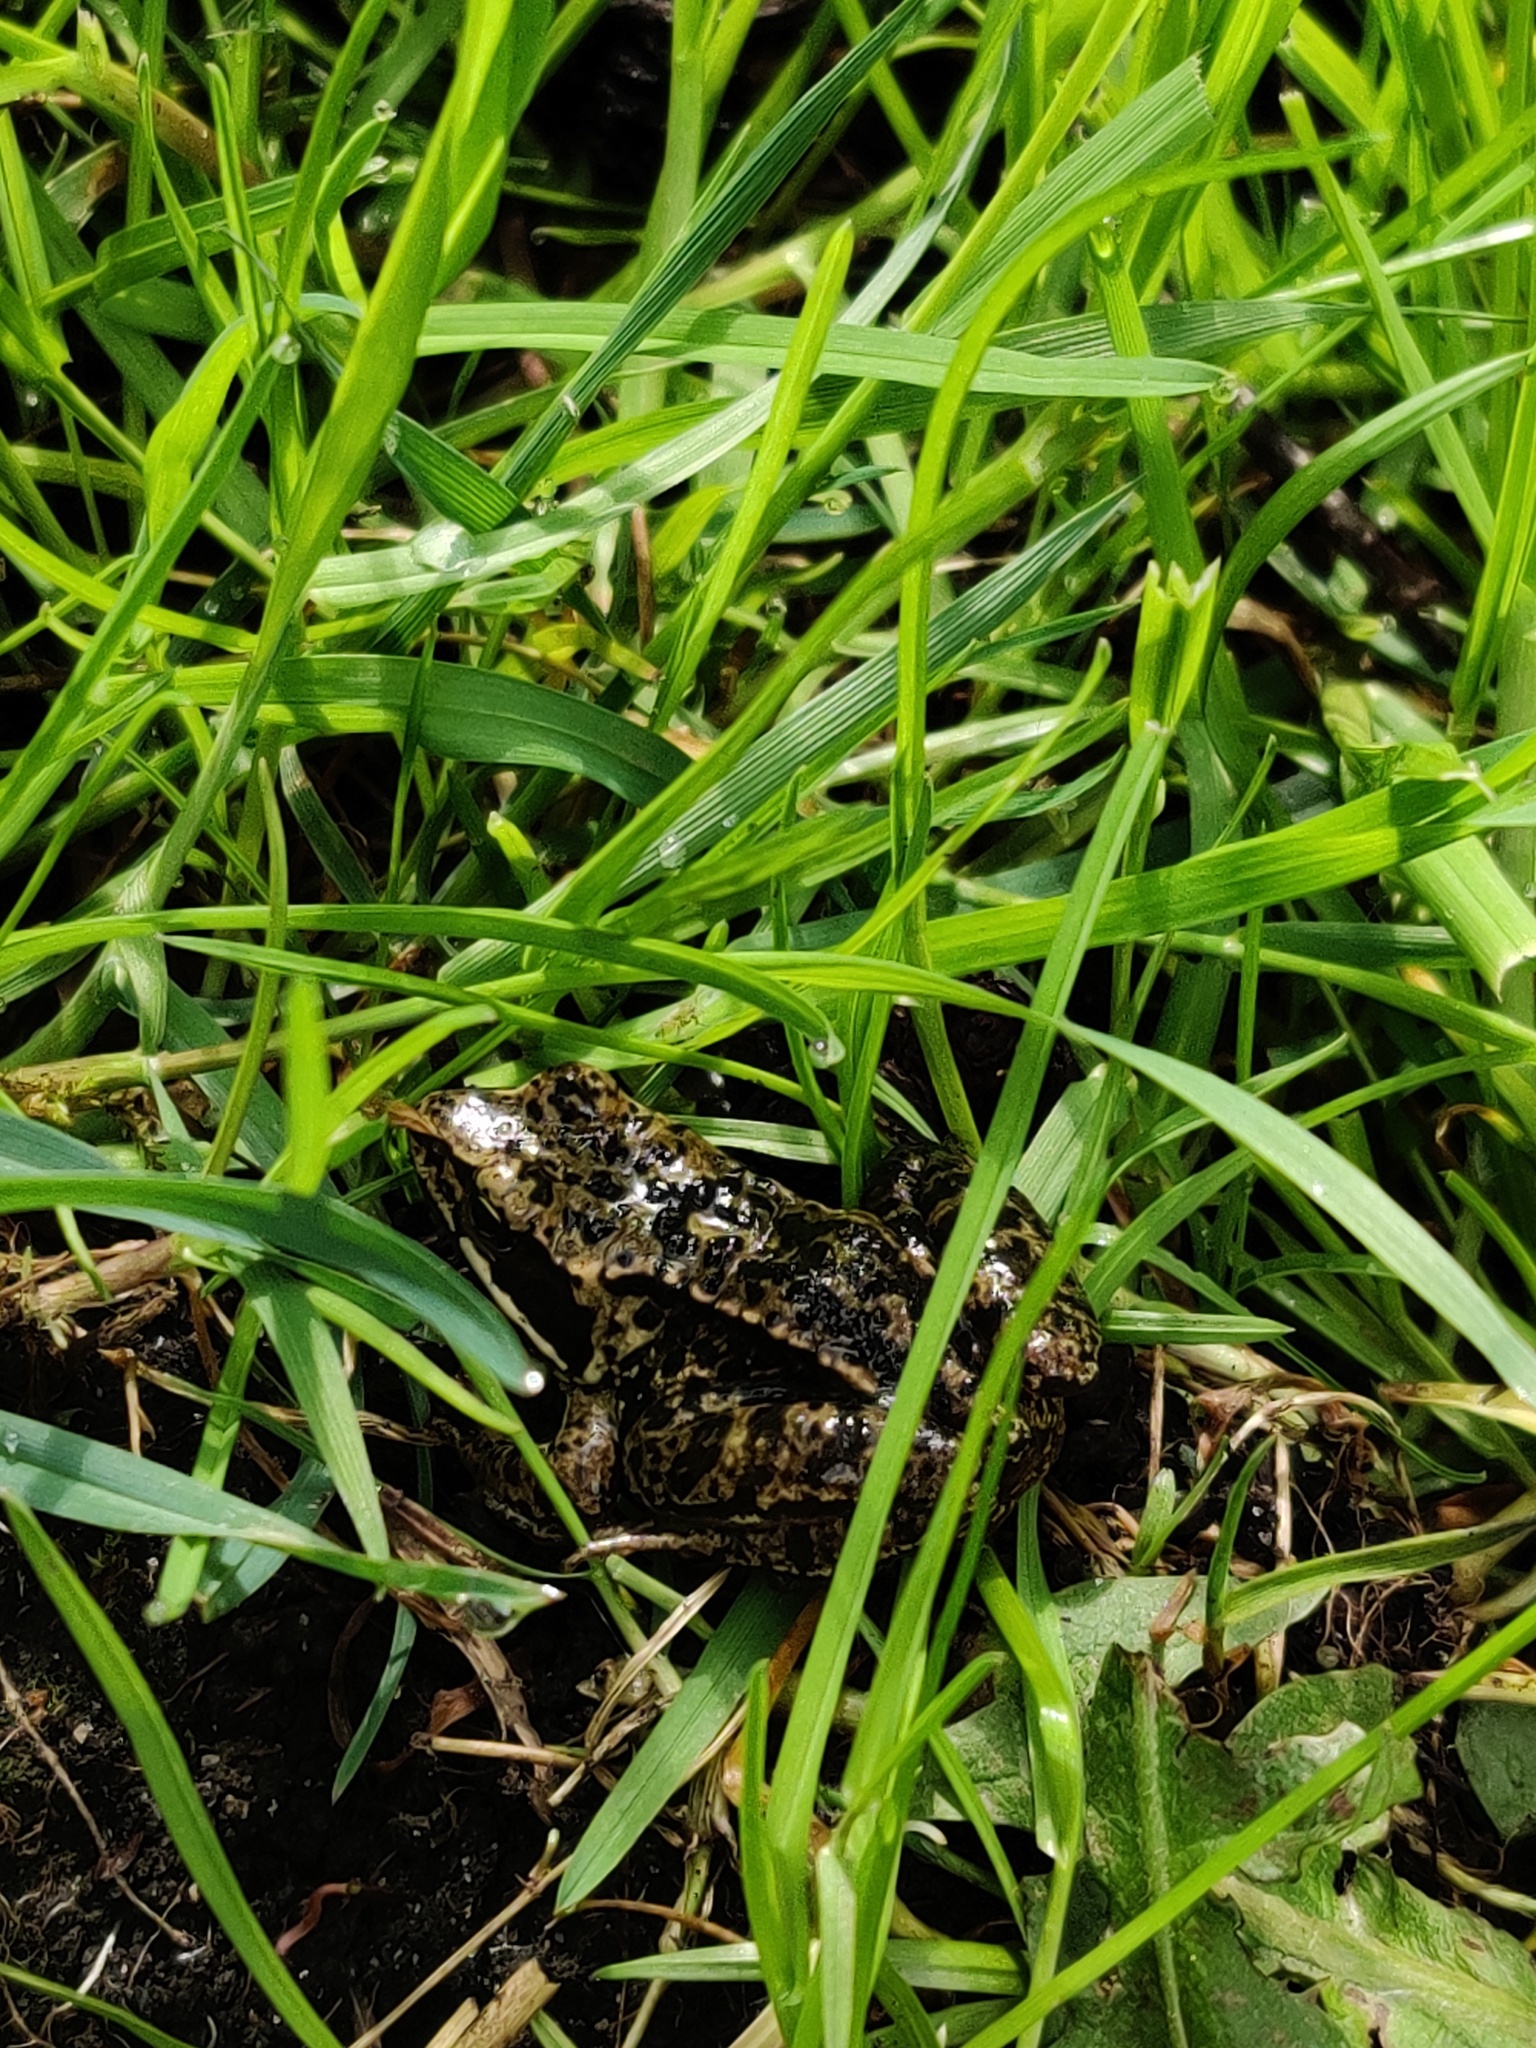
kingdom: Animalia
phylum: Chordata
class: Amphibia
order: Anura
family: Ranidae
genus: Rana
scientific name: Rana temporaria
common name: Common frog
